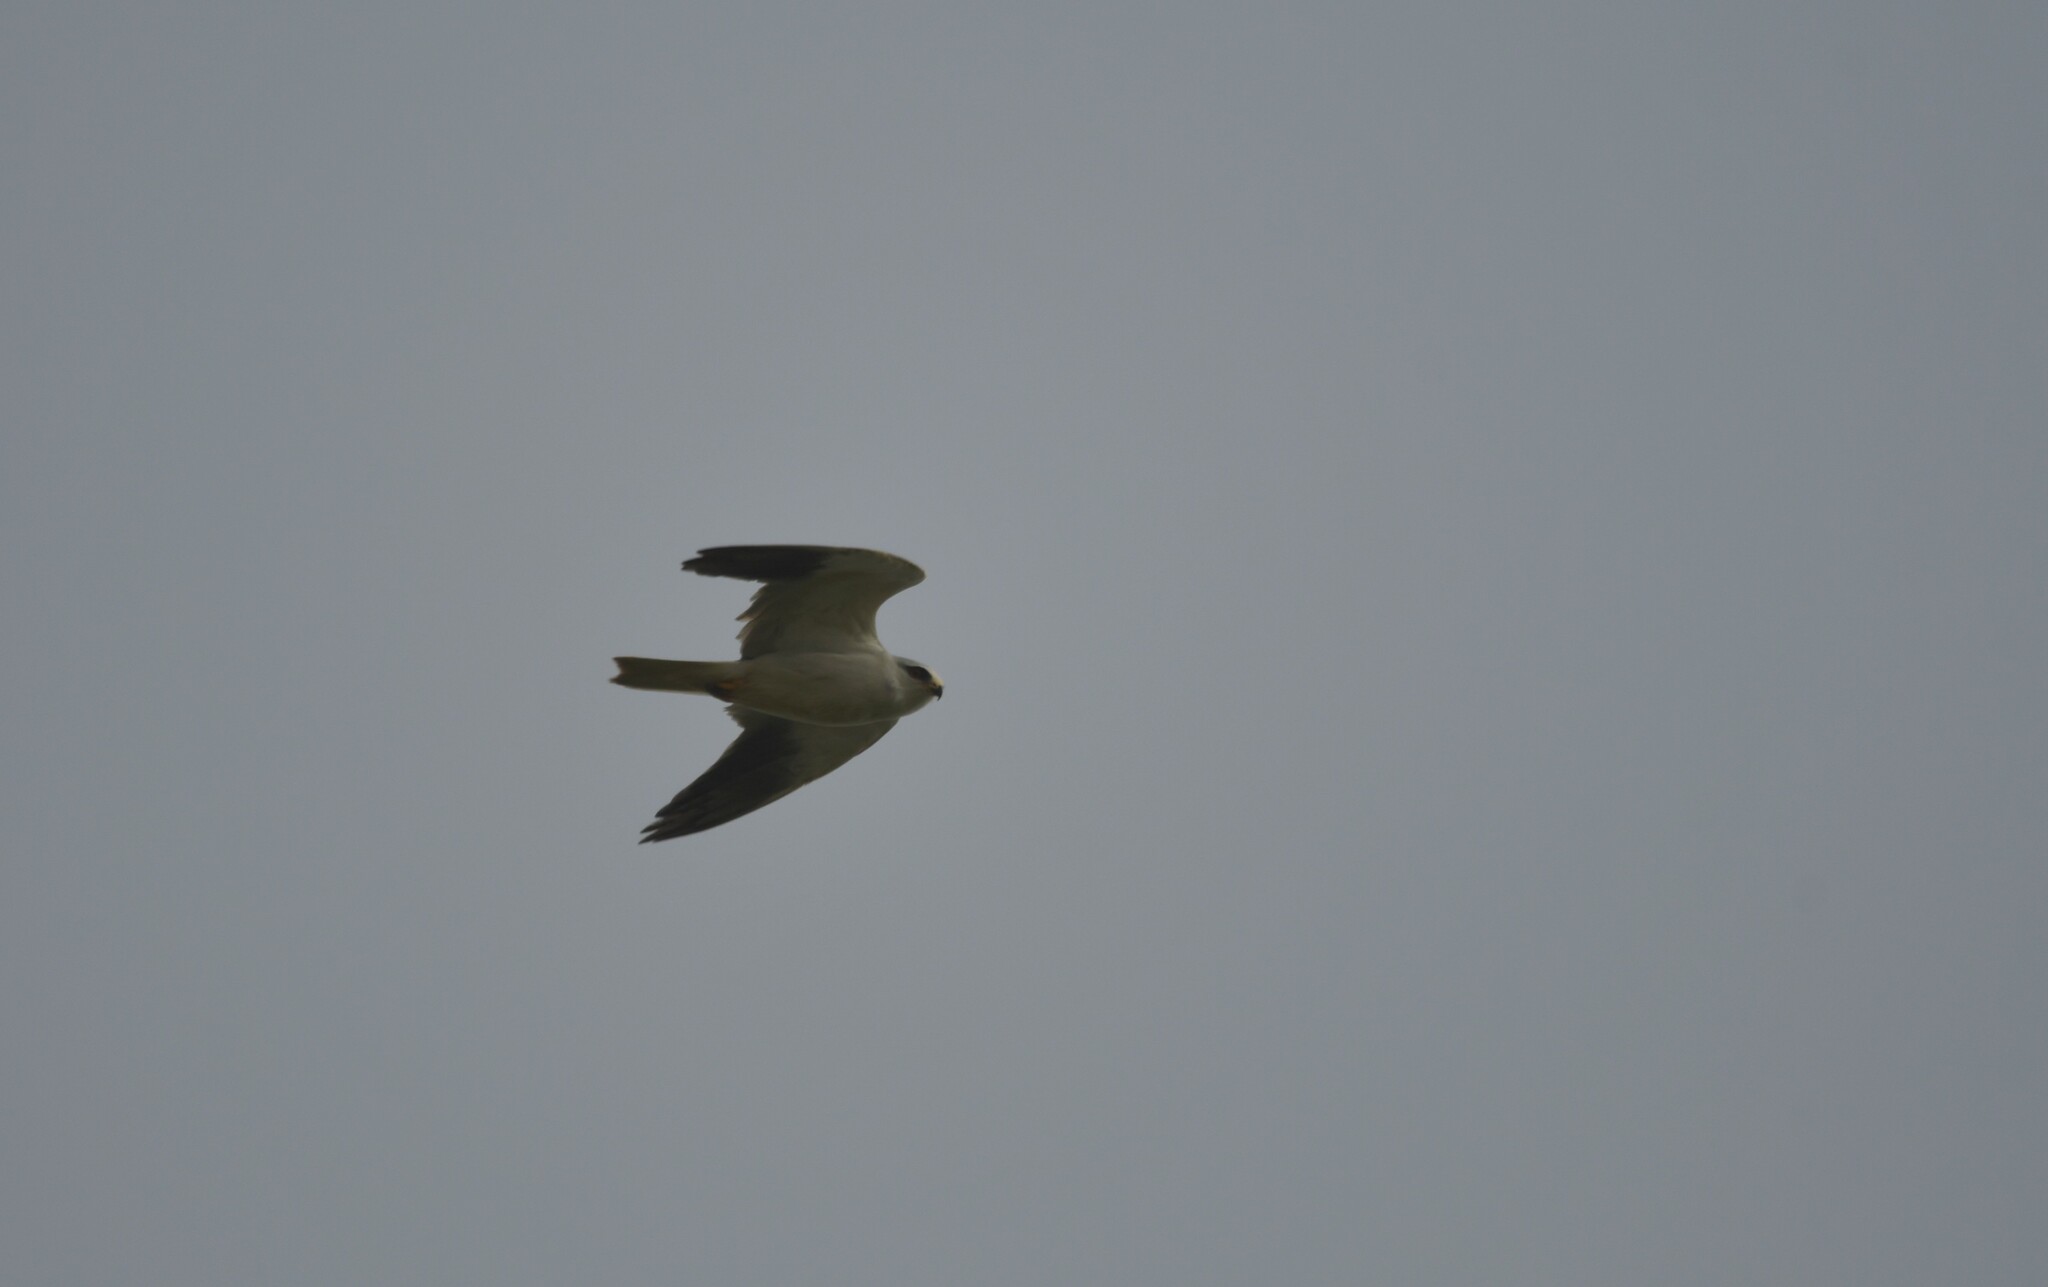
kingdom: Animalia
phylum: Chordata
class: Aves
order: Accipitriformes
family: Accipitridae
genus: Elanus
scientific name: Elanus caeruleus
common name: Black-winged kite
